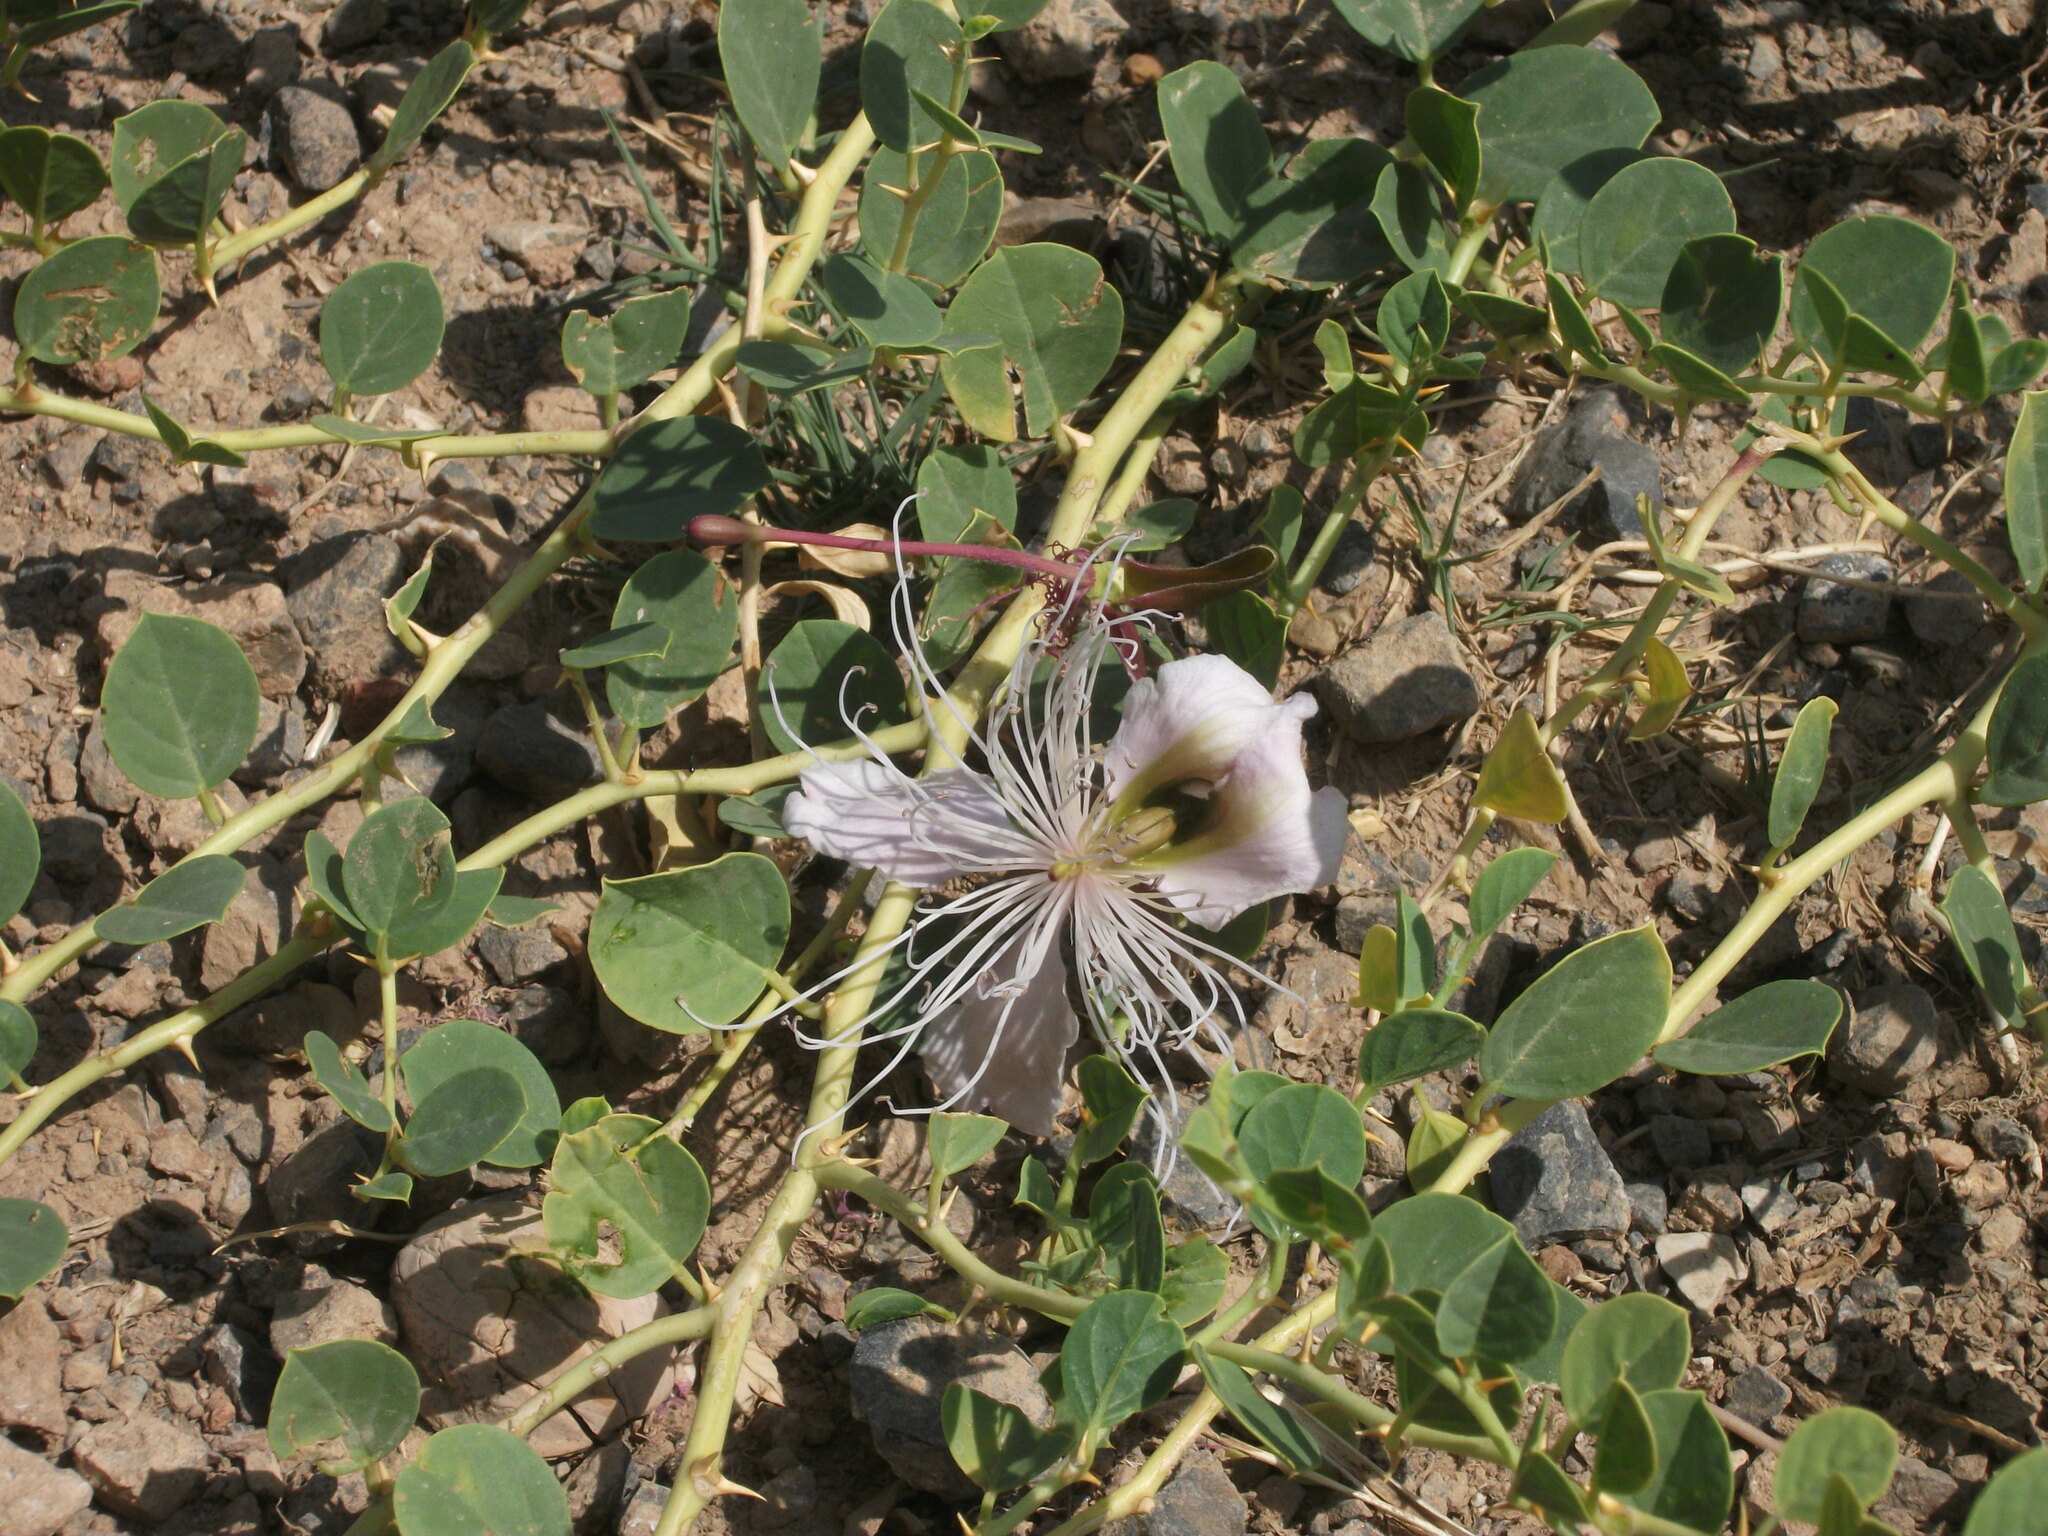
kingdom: Plantae
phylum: Tracheophyta
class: Magnoliopsida
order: Brassicales
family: Capparaceae
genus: Capparis
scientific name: Capparis spinosa
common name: Caper
